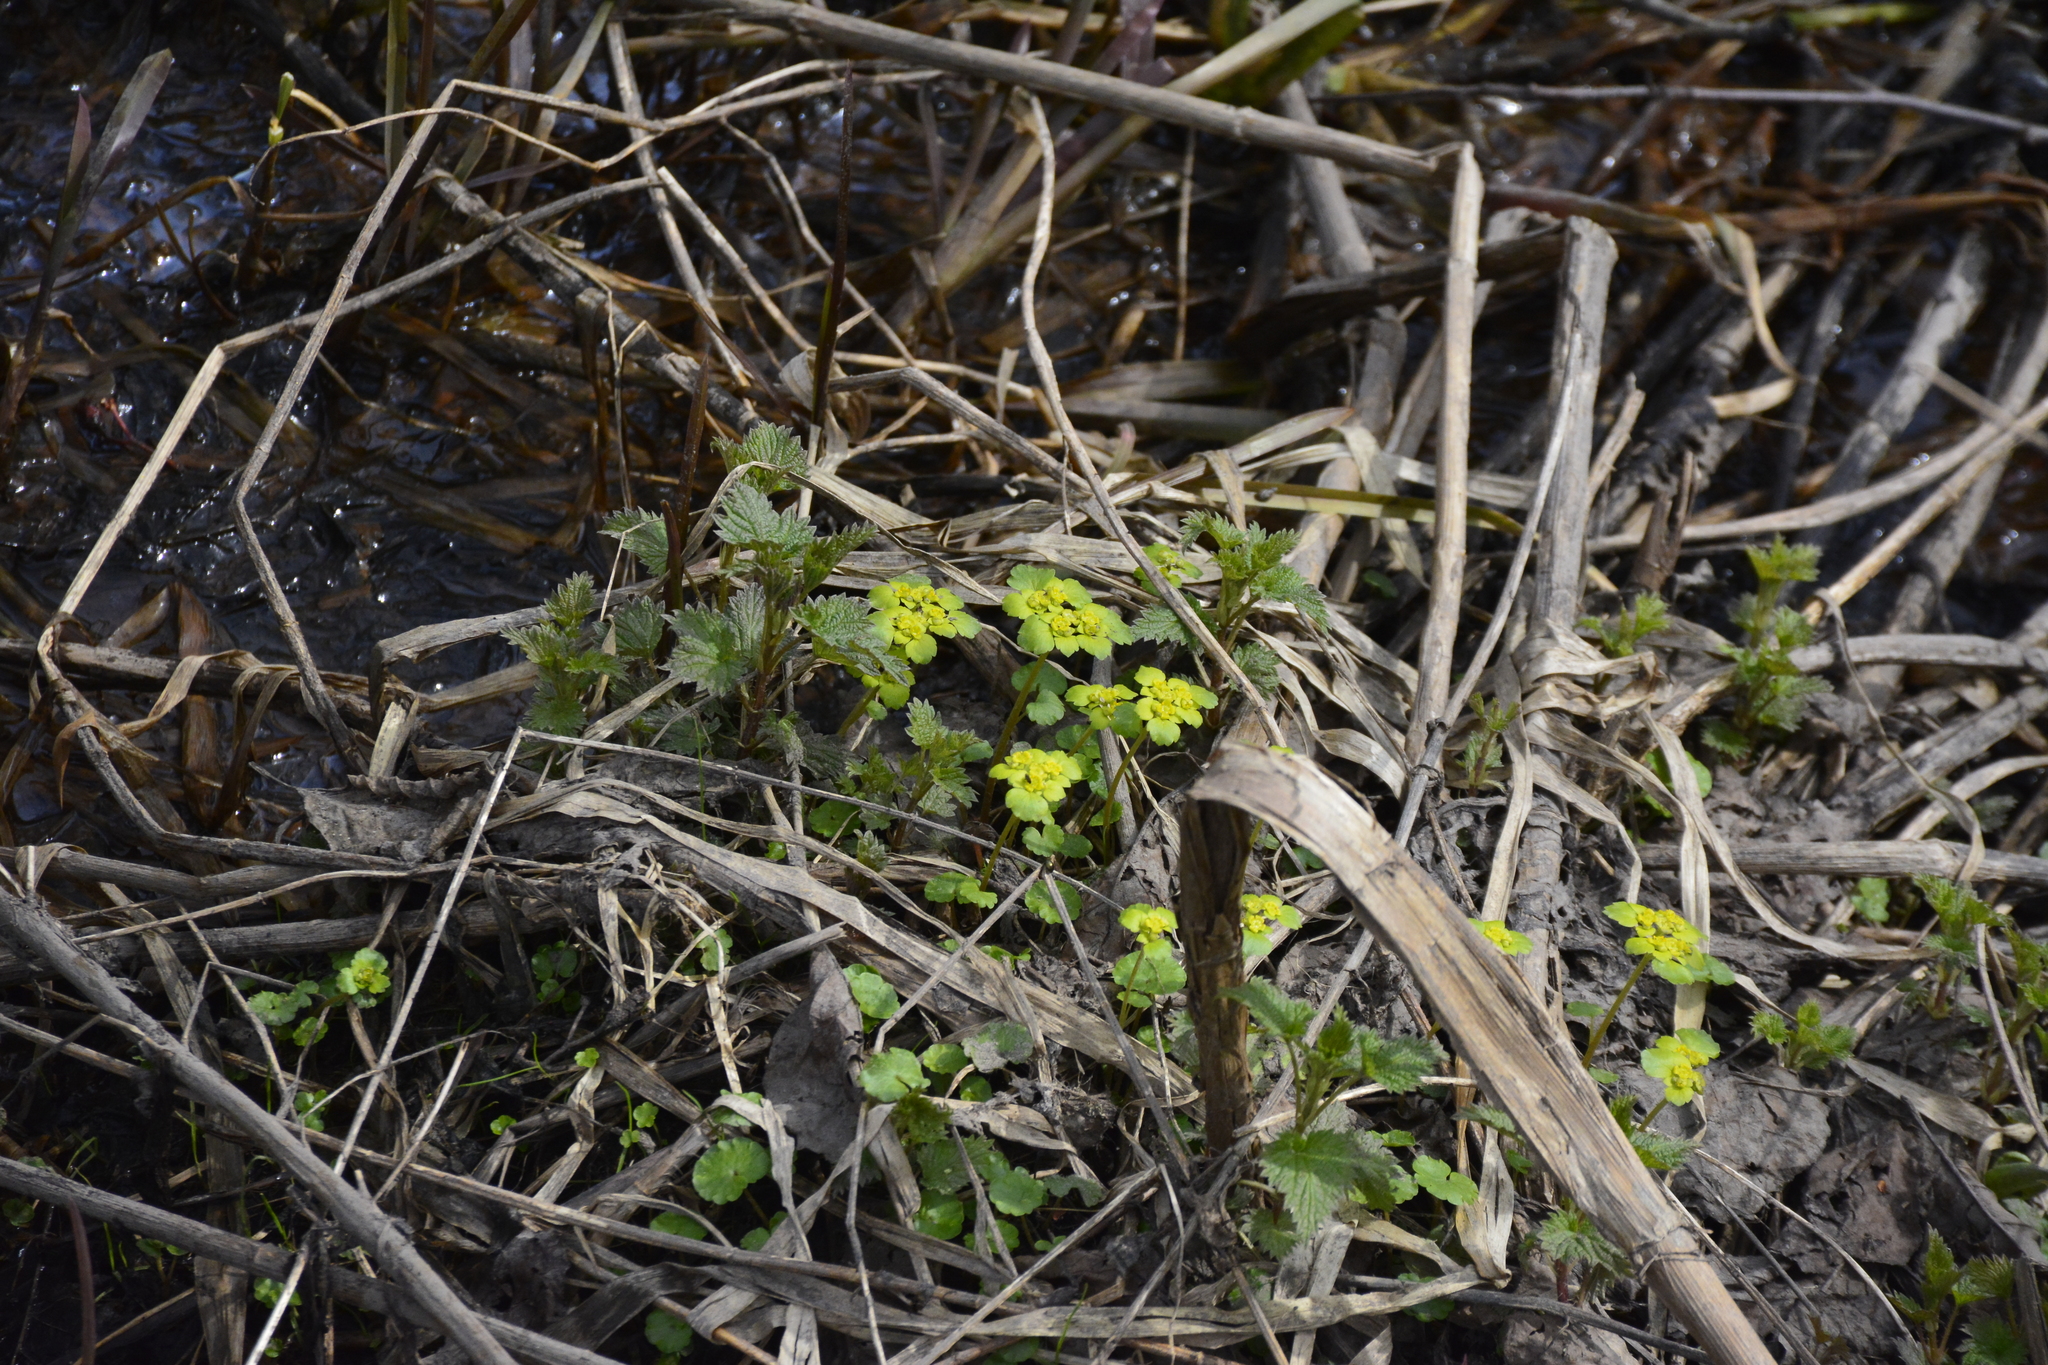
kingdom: Plantae
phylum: Tracheophyta
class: Magnoliopsida
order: Saxifragales
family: Saxifragaceae
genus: Chrysosplenium
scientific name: Chrysosplenium alternifolium
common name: Alternate-leaved golden-saxifrage
